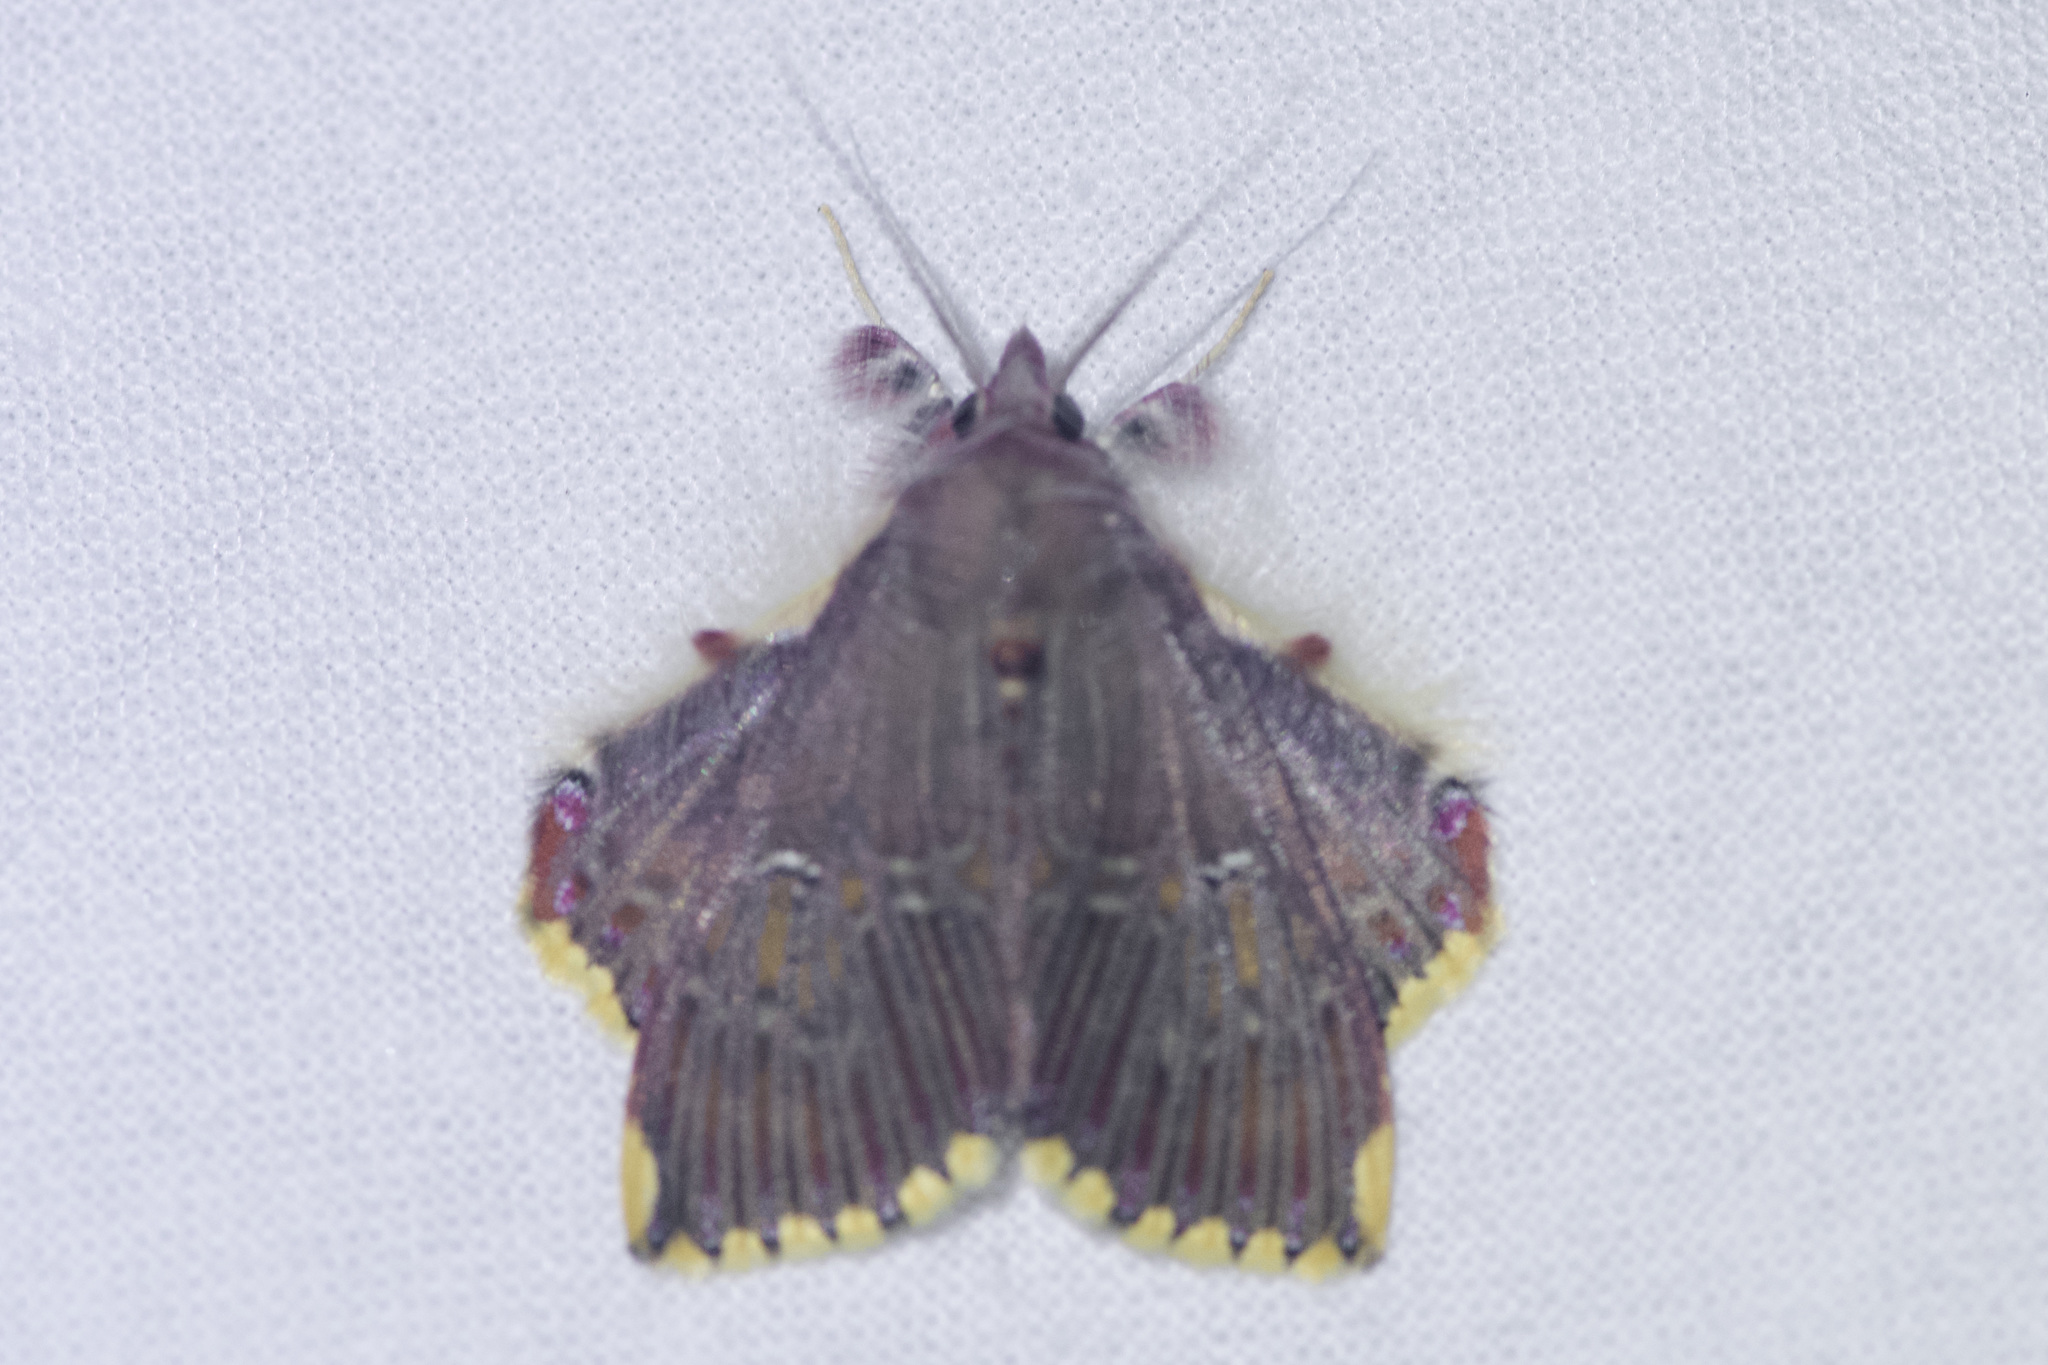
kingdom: Animalia
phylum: Arthropoda
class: Insecta
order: Lepidoptera
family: Erebidae
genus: Sosxetra
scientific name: Sosxetra grata
